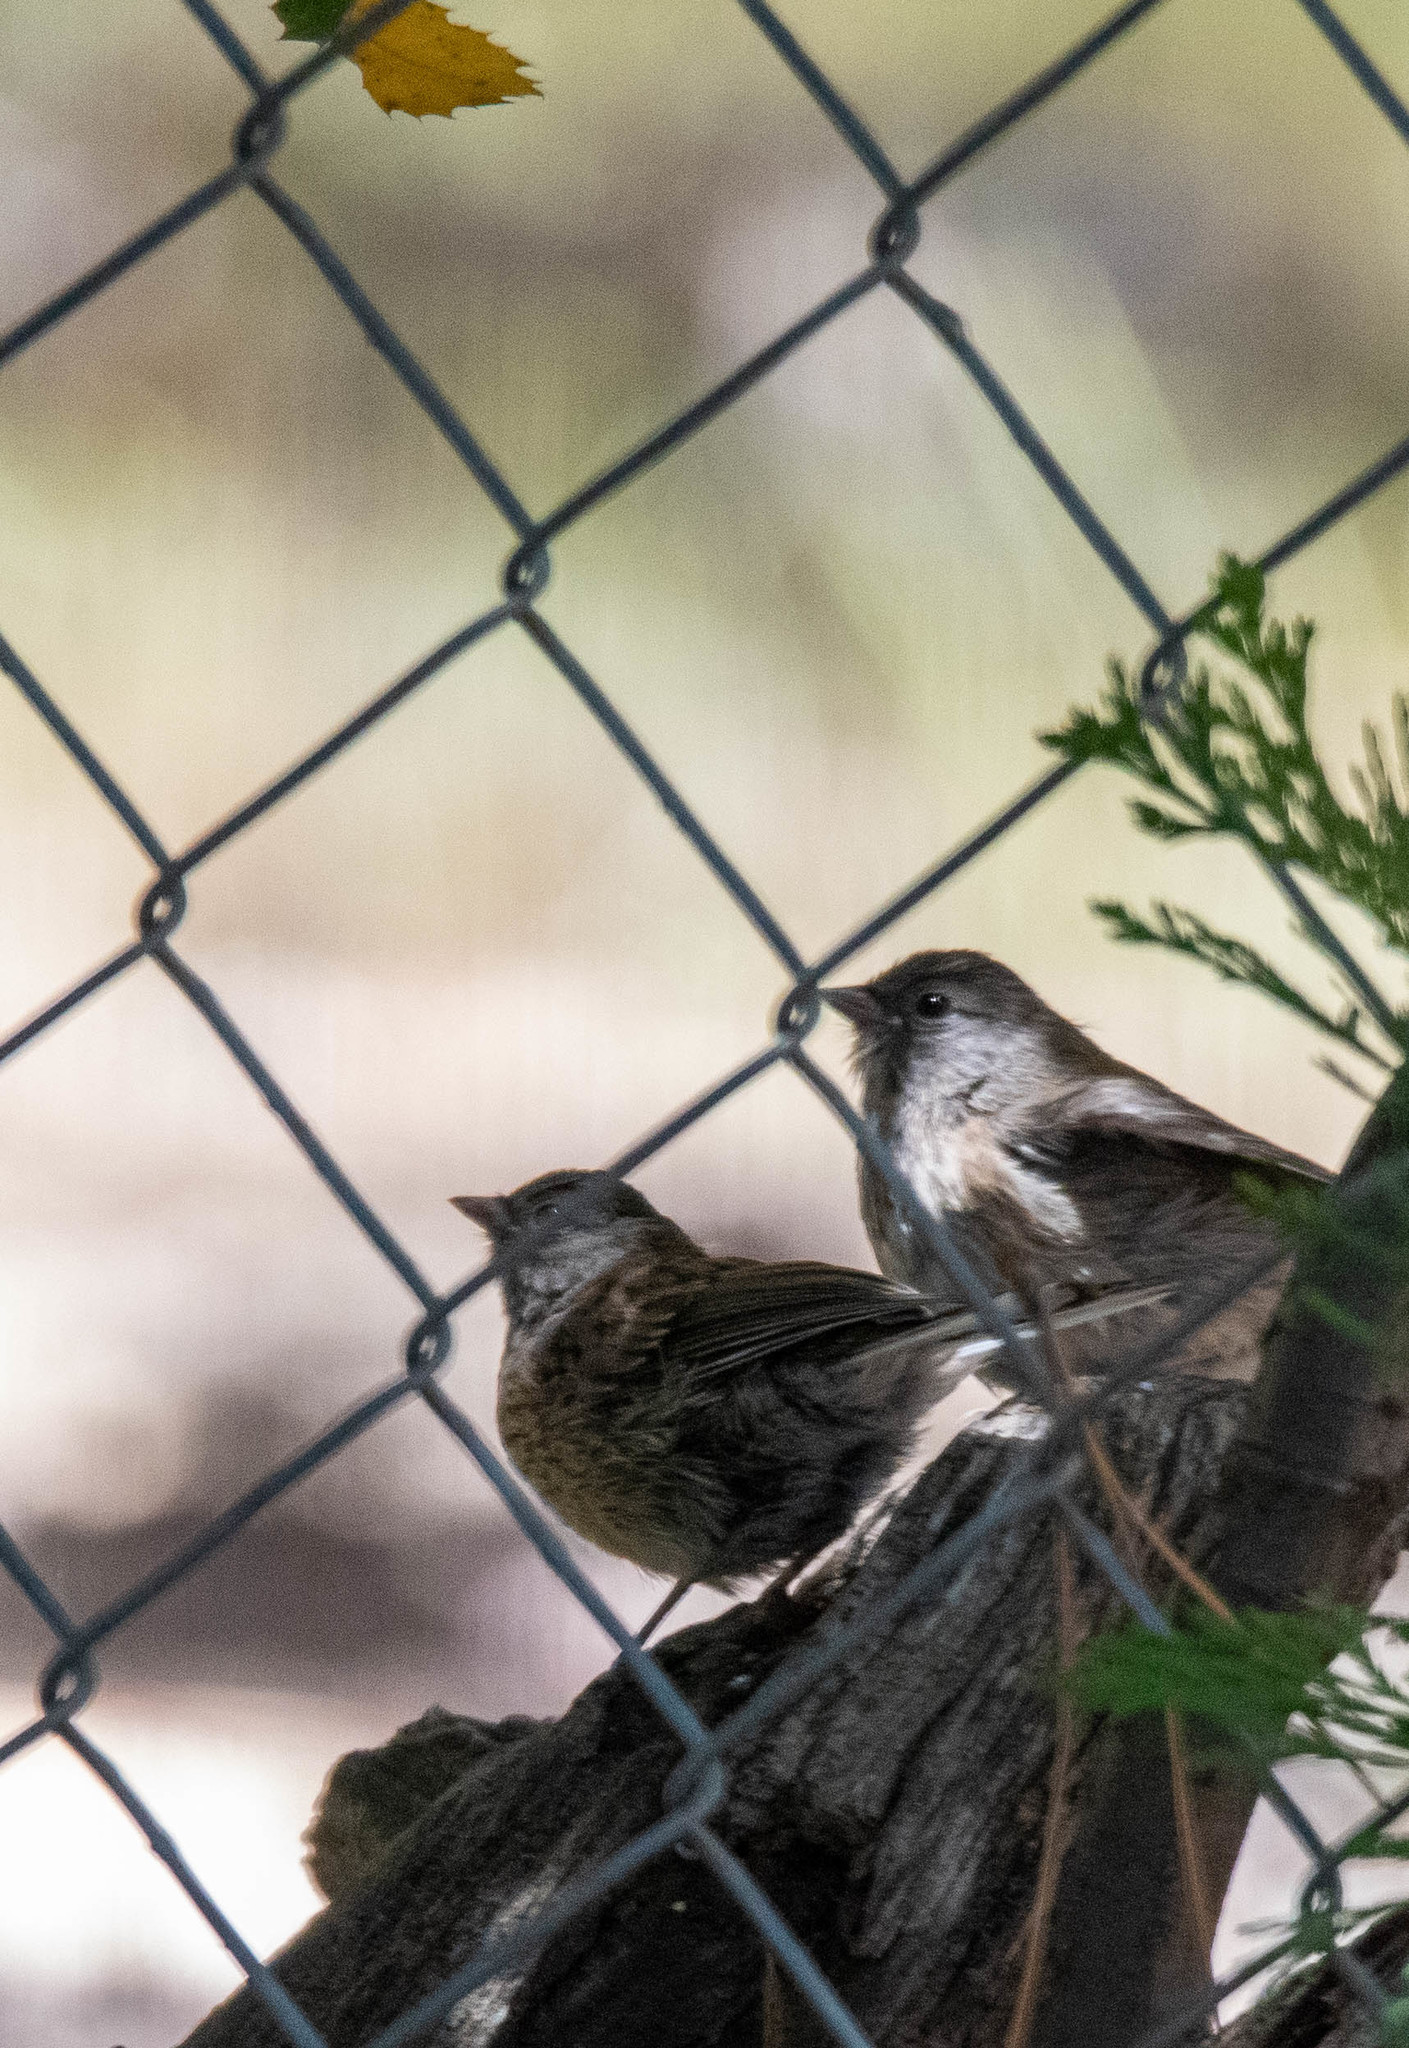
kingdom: Animalia
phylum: Chordata
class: Aves
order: Passeriformes
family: Passerellidae
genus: Junco
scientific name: Junco hyemalis
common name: Dark-eyed junco
